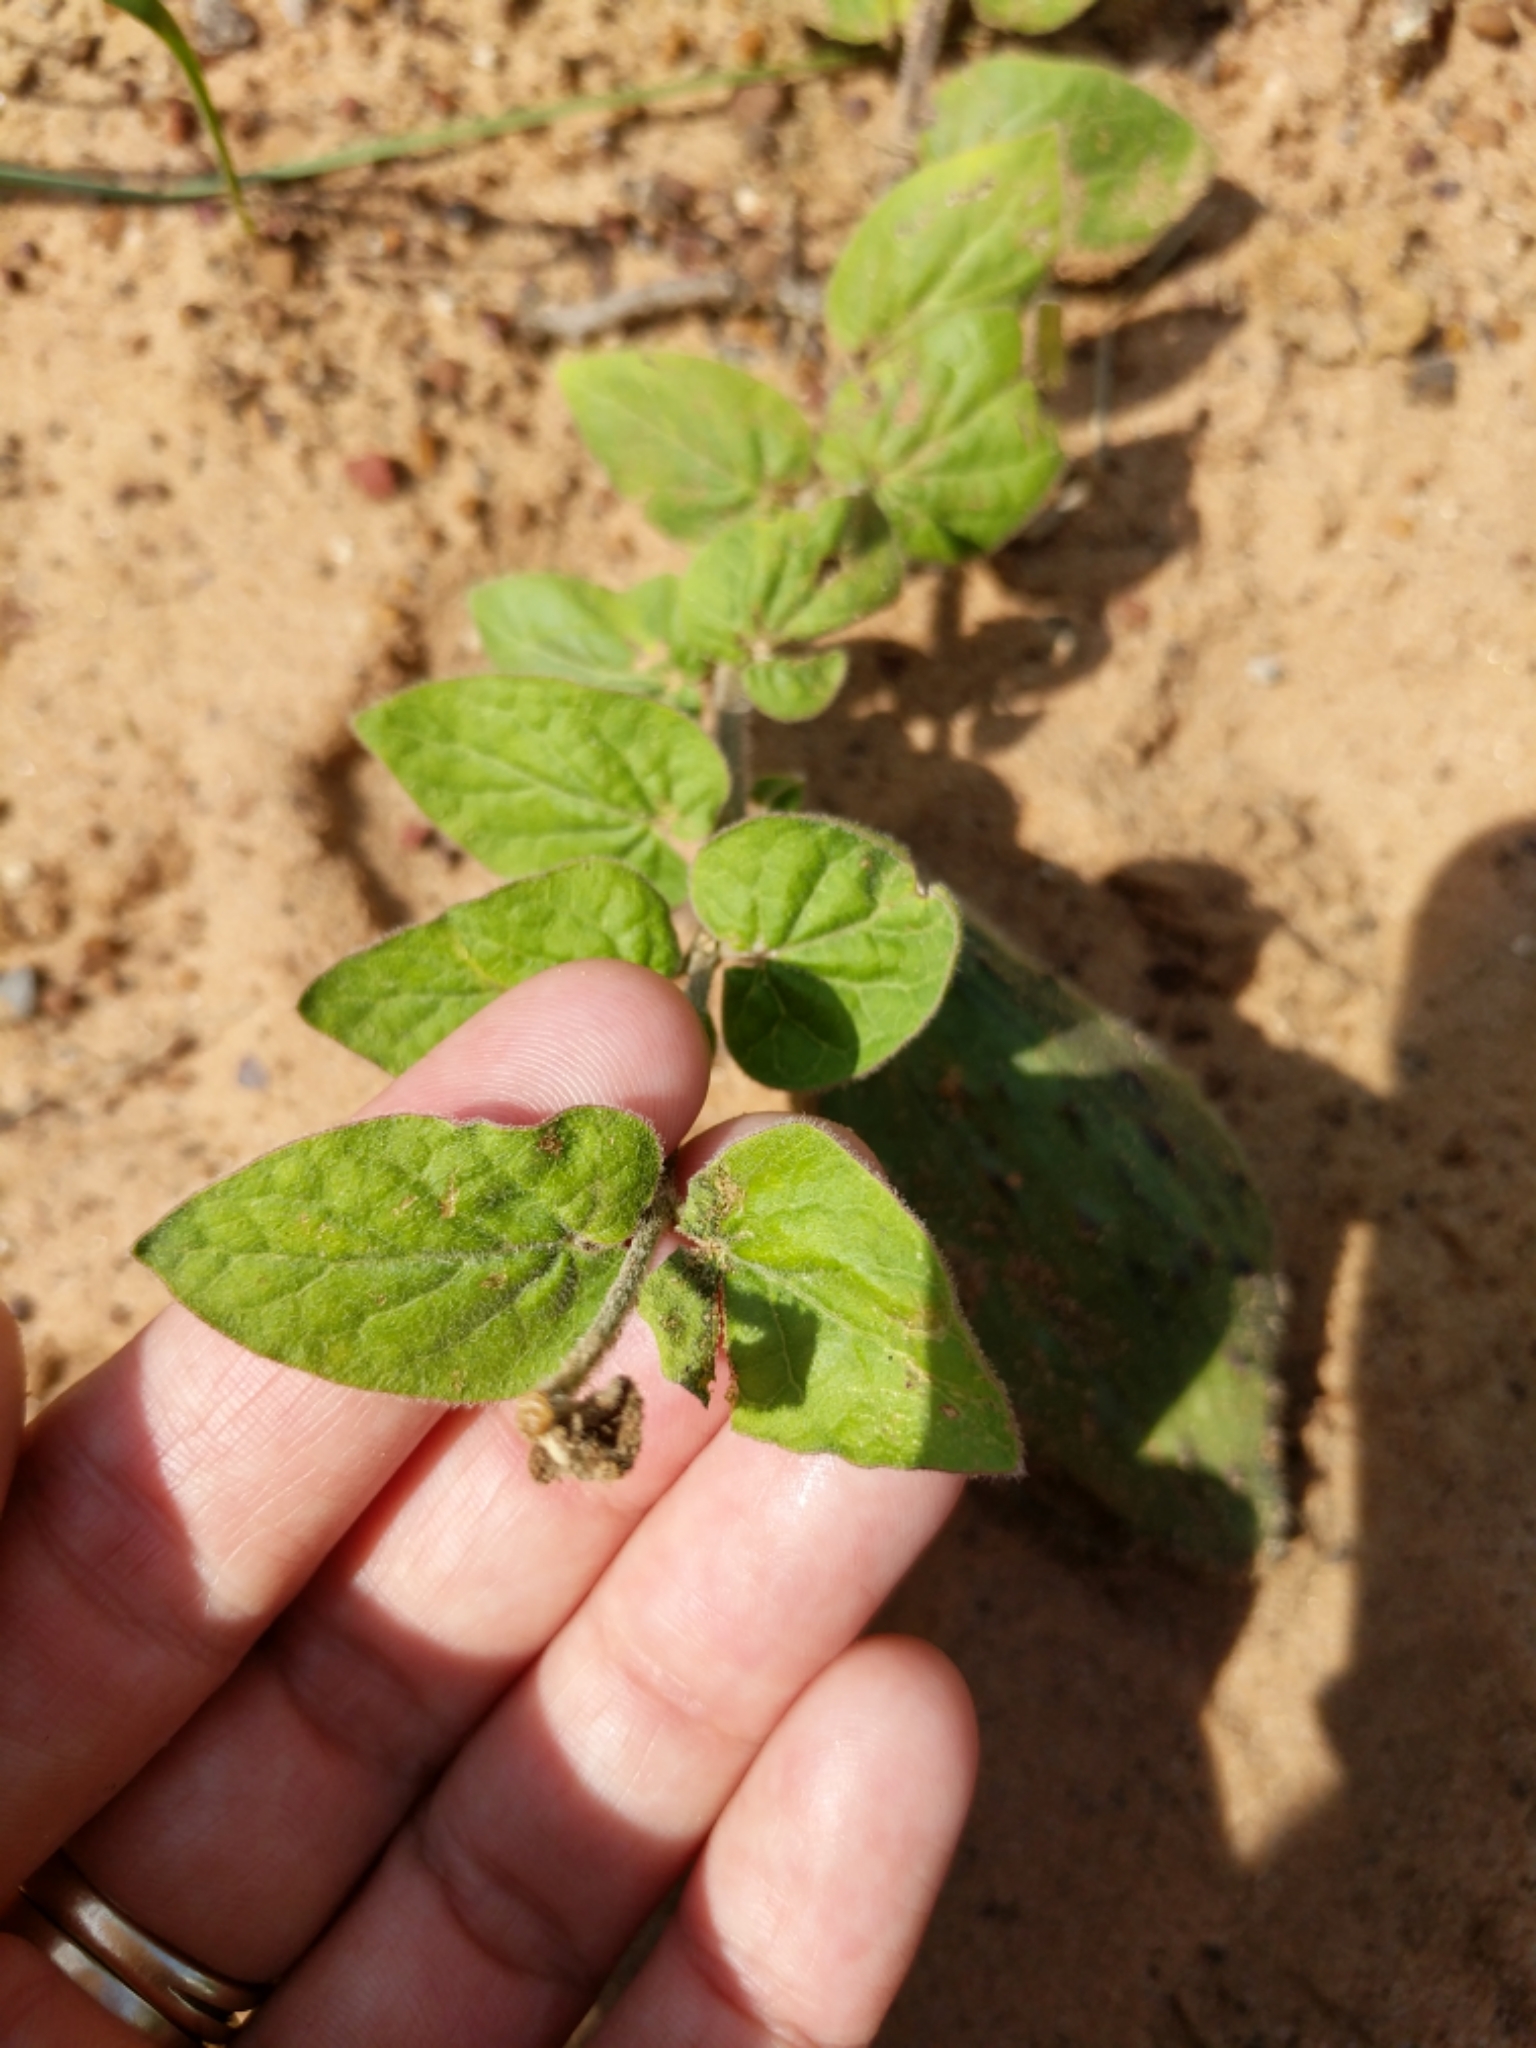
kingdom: Plantae
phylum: Tracheophyta
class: Magnoliopsida
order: Gentianales
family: Apocynaceae
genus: Matelea
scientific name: Matelea cynanchoides
